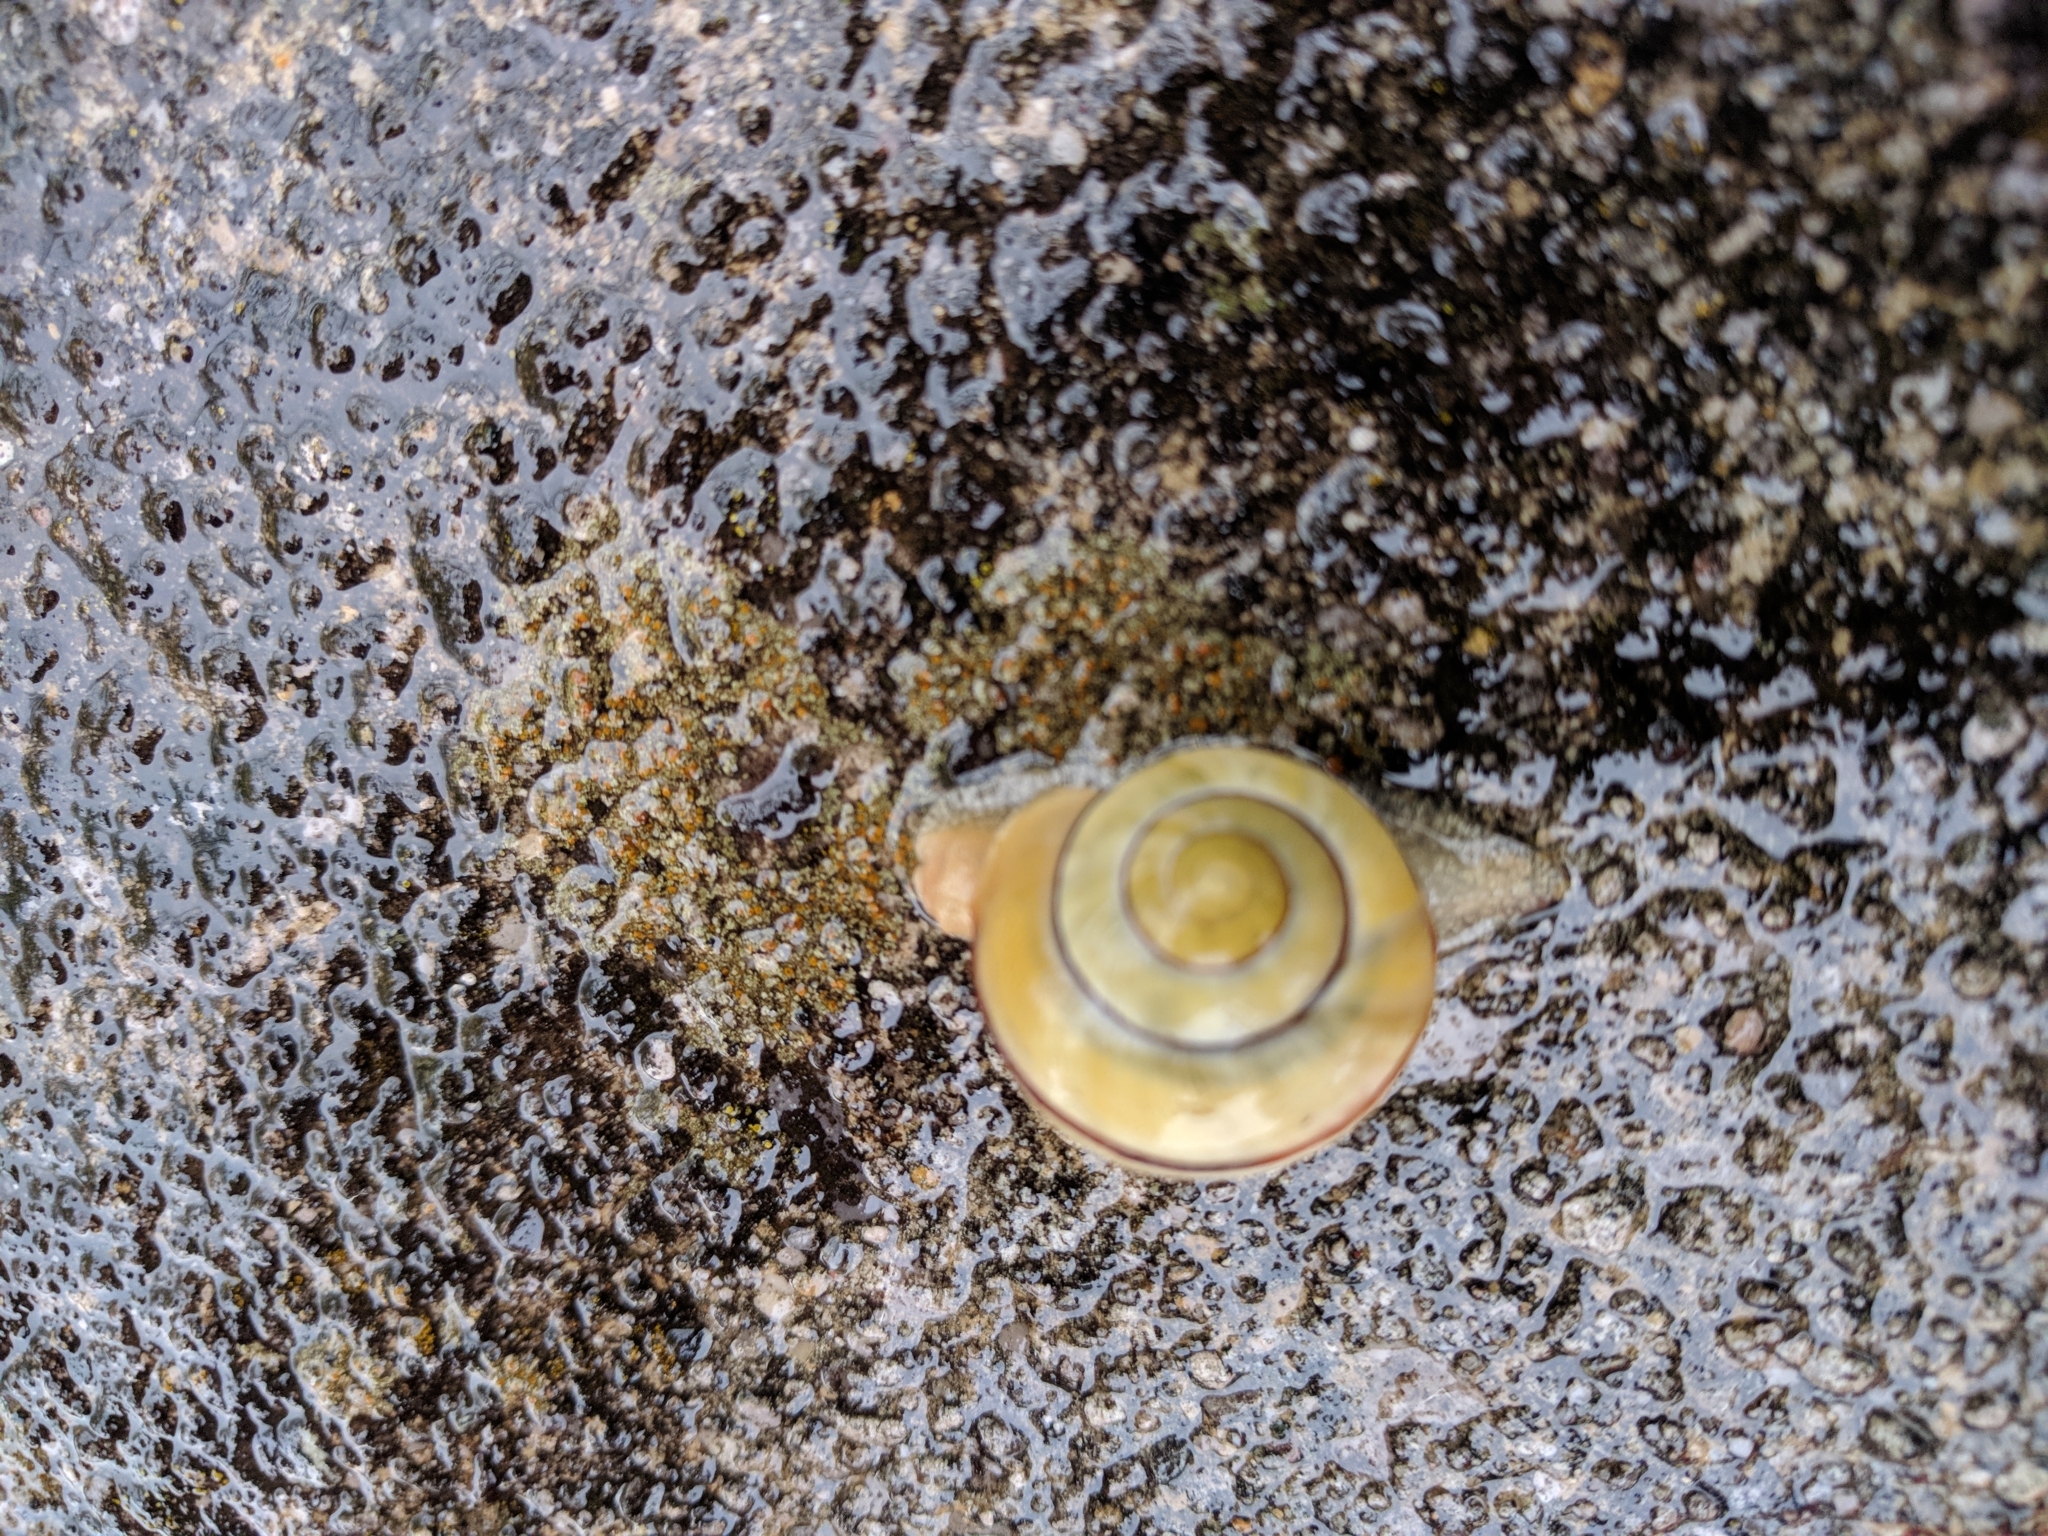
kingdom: Animalia
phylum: Mollusca
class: Gastropoda
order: Stylommatophora
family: Helicidae
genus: Cepaea
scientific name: Cepaea
